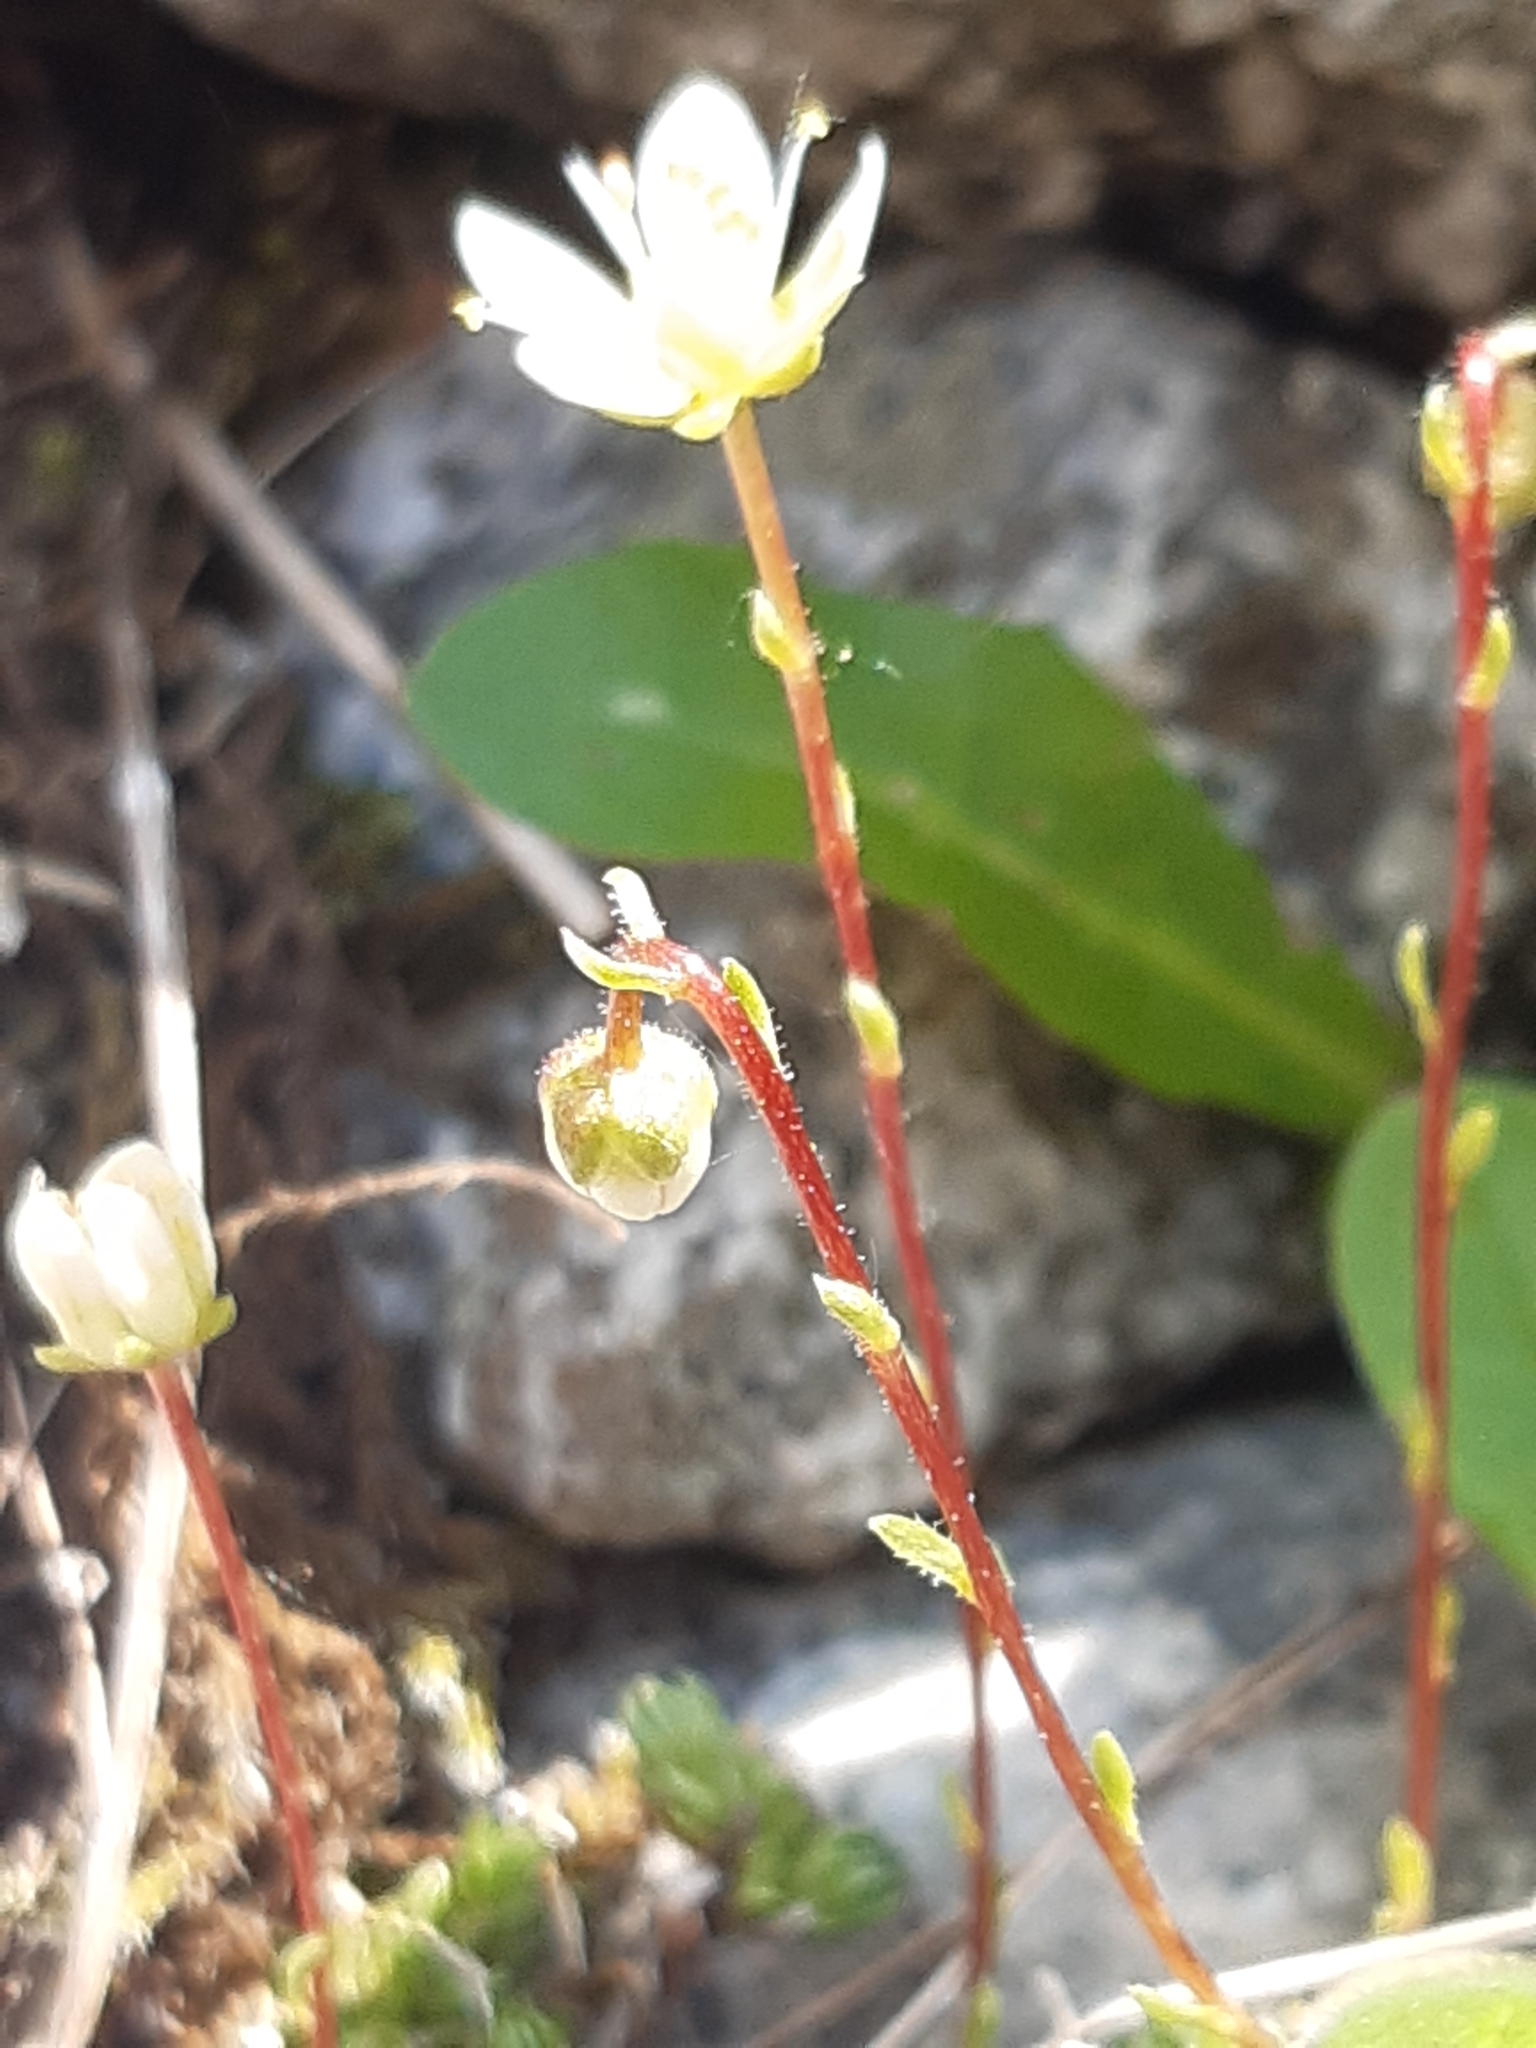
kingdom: Plantae
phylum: Tracheophyta
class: Magnoliopsida
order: Saxifragales
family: Saxifragaceae
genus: Saxifraga
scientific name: Saxifraga bryoides
